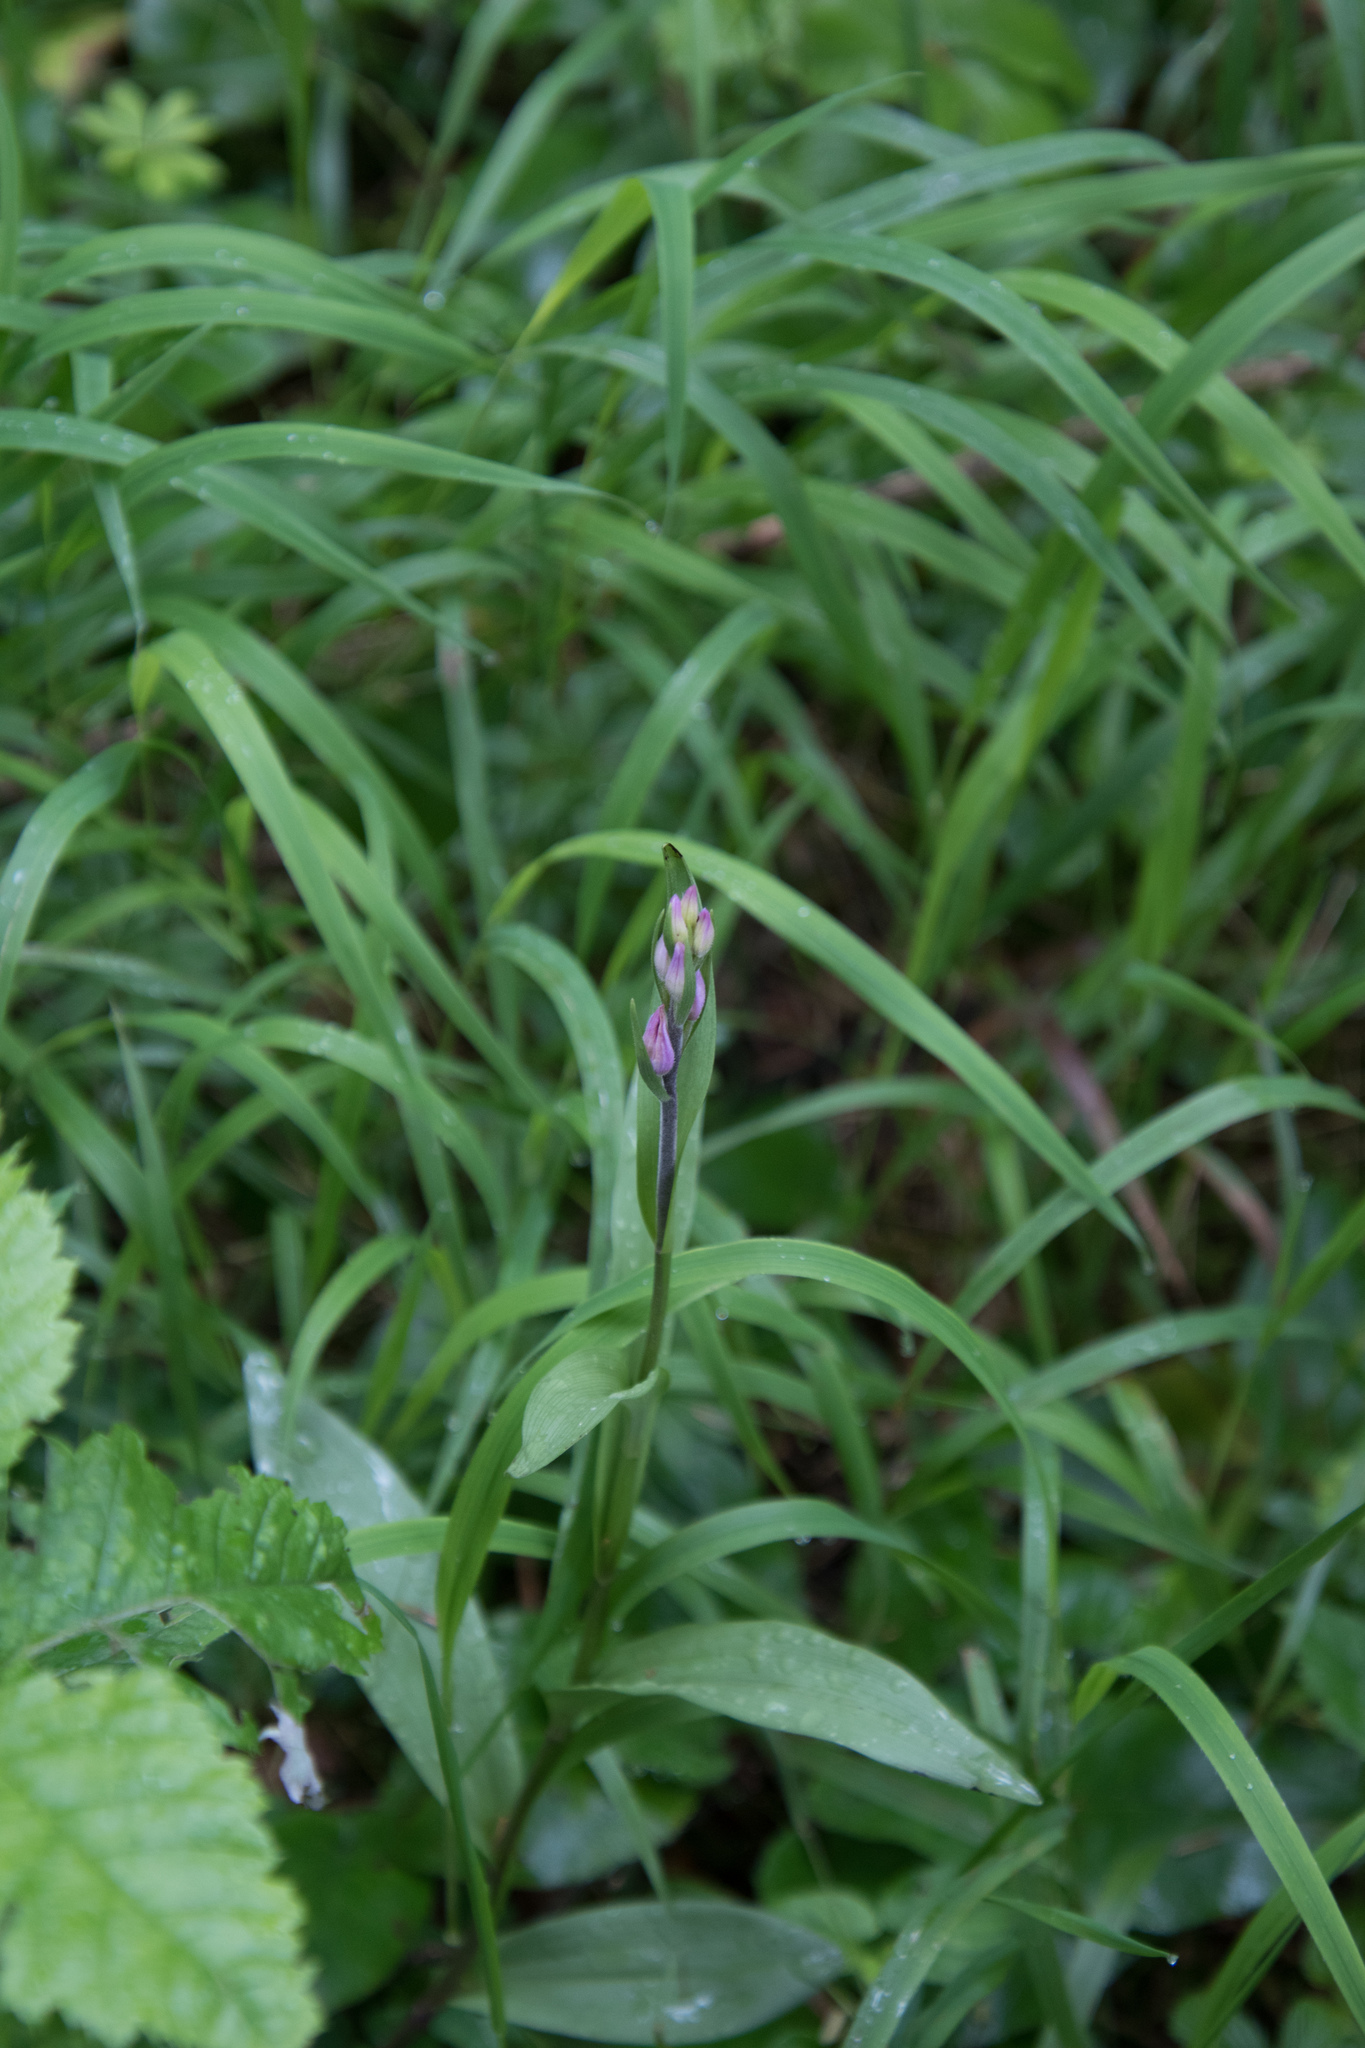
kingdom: Plantae
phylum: Tracheophyta
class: Liliopsida
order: Asparagales
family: Orchidaceae
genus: Cephalanthera
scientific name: Cephalanthera rubra
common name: Red helleborine
